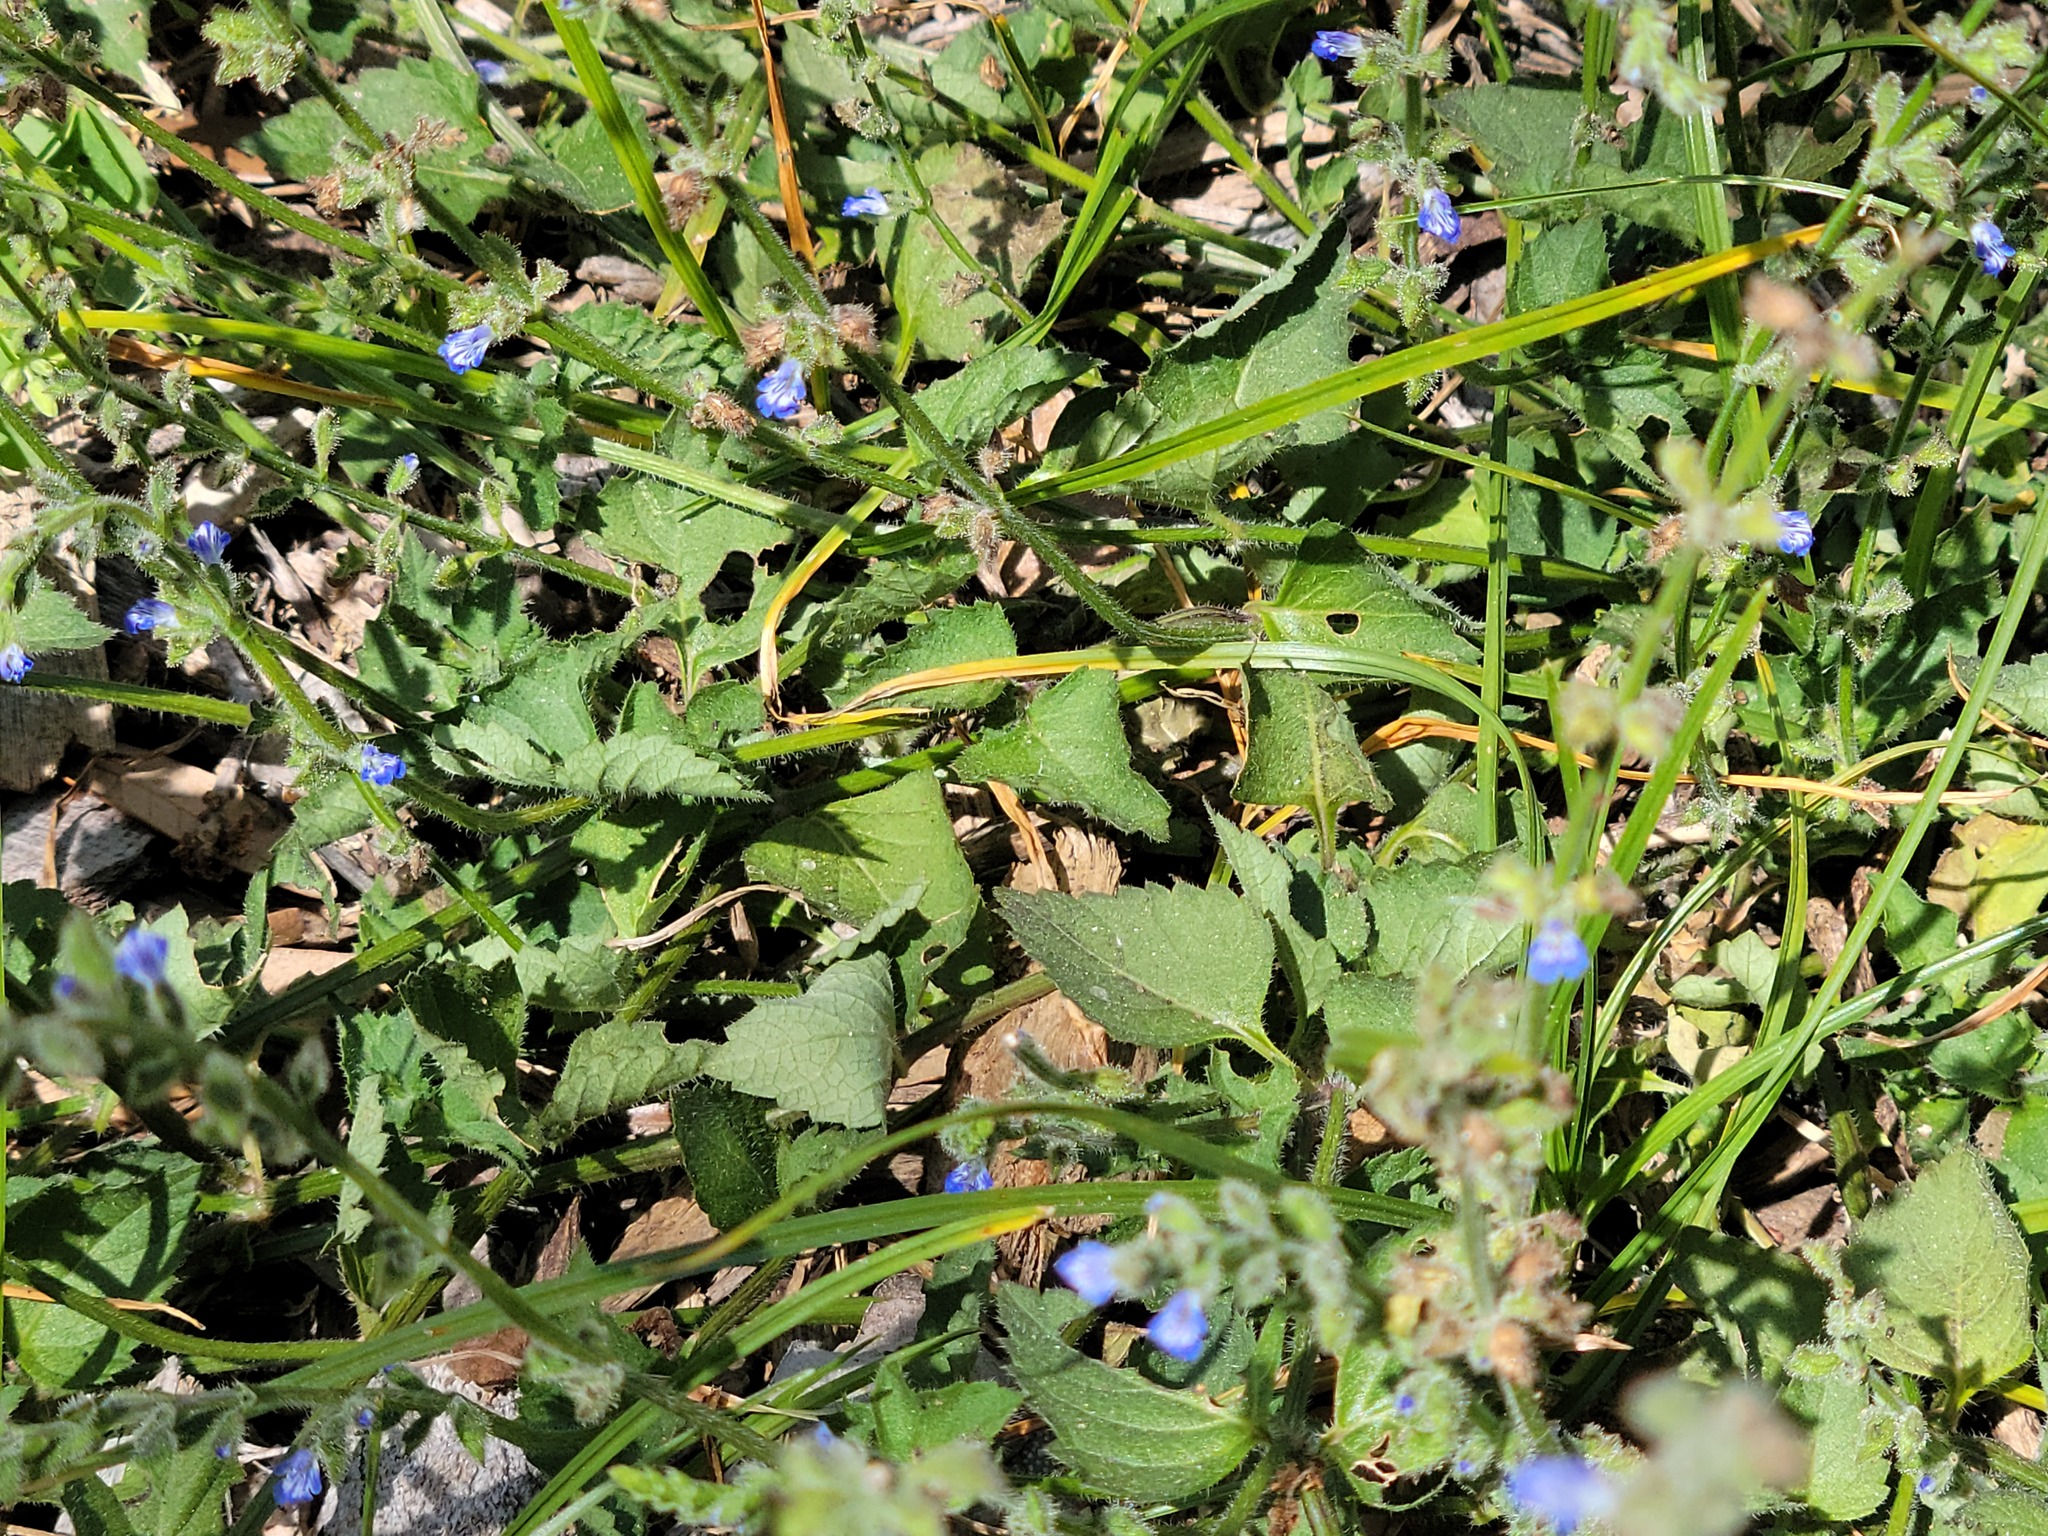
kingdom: Plantae
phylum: Tracheophyta
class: Magnoliopsida
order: Lamiales
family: Lamiaceae
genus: Salvia
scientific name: Salvia misella
